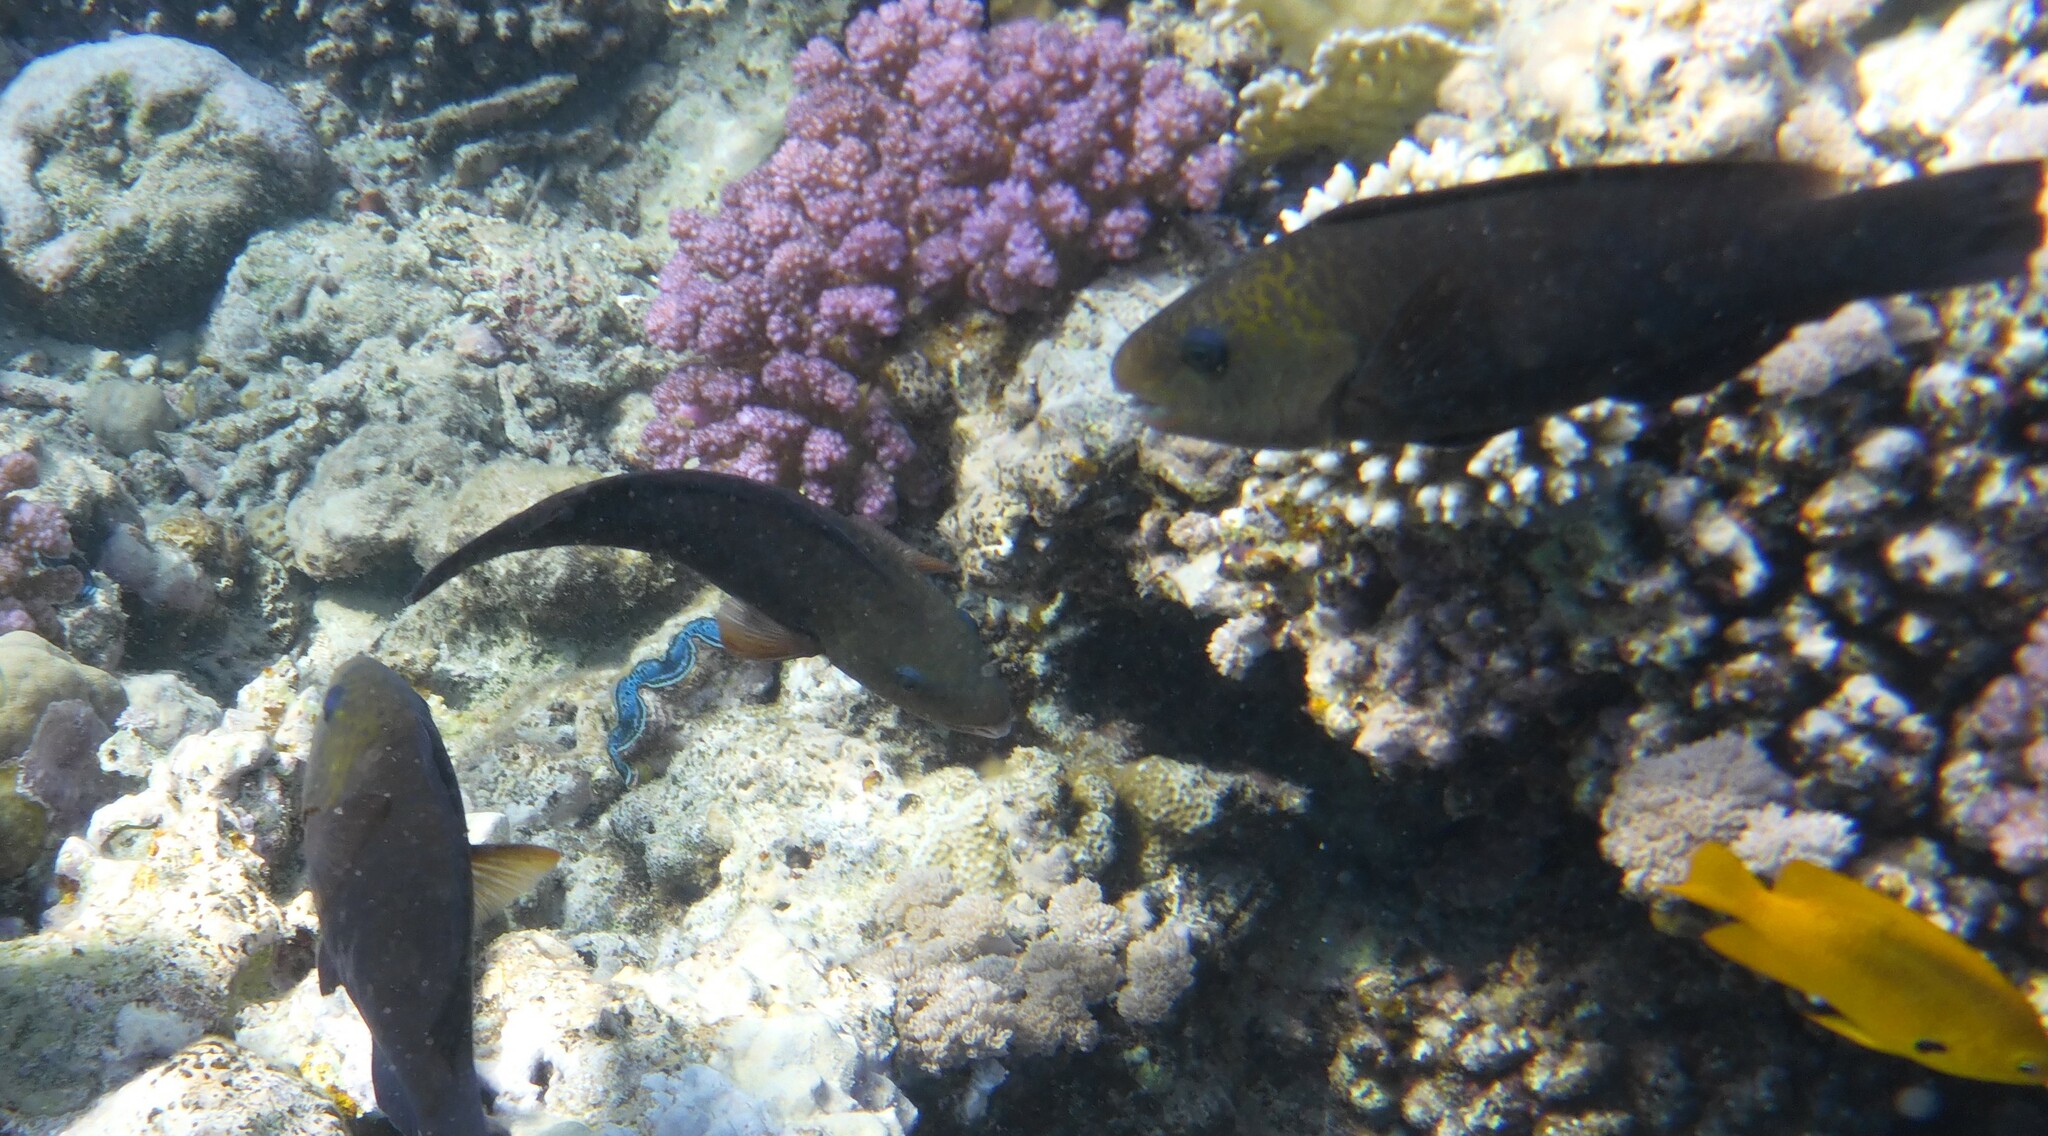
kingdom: Animalia
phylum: Chordata
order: Perciformes
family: Scaridae
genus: Chlorurus
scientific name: Chlorurus sordidus
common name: Bullethead parrotfish
